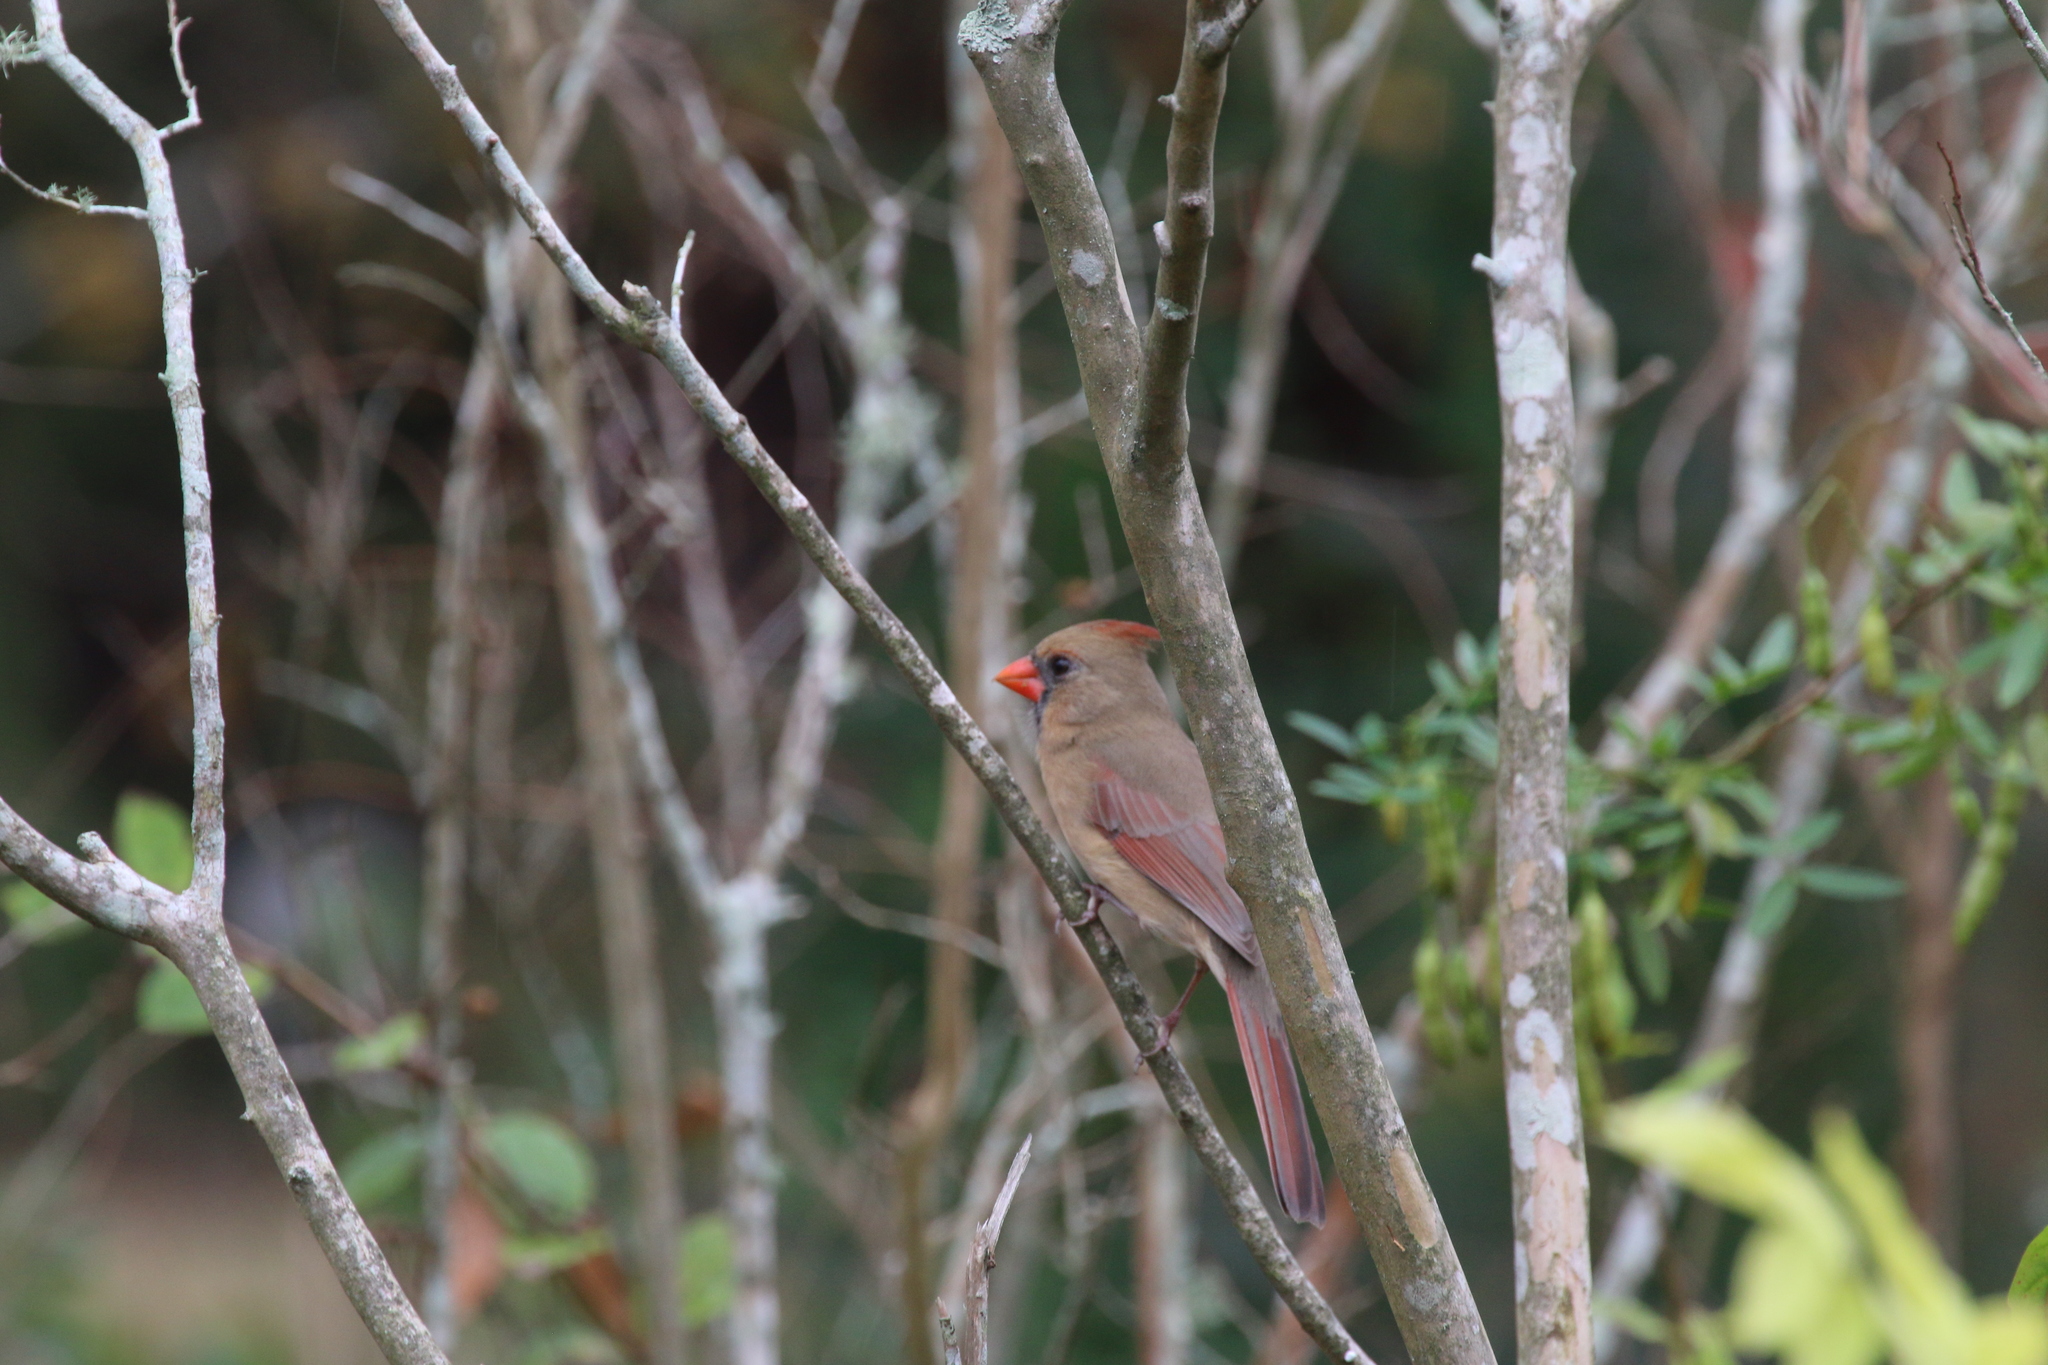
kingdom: Animalia
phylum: Chordata
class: Aves
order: Passeriformes
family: Cardinalidae
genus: Cardinalis
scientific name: Cardinalis cardinalis
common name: Northern cardinal
